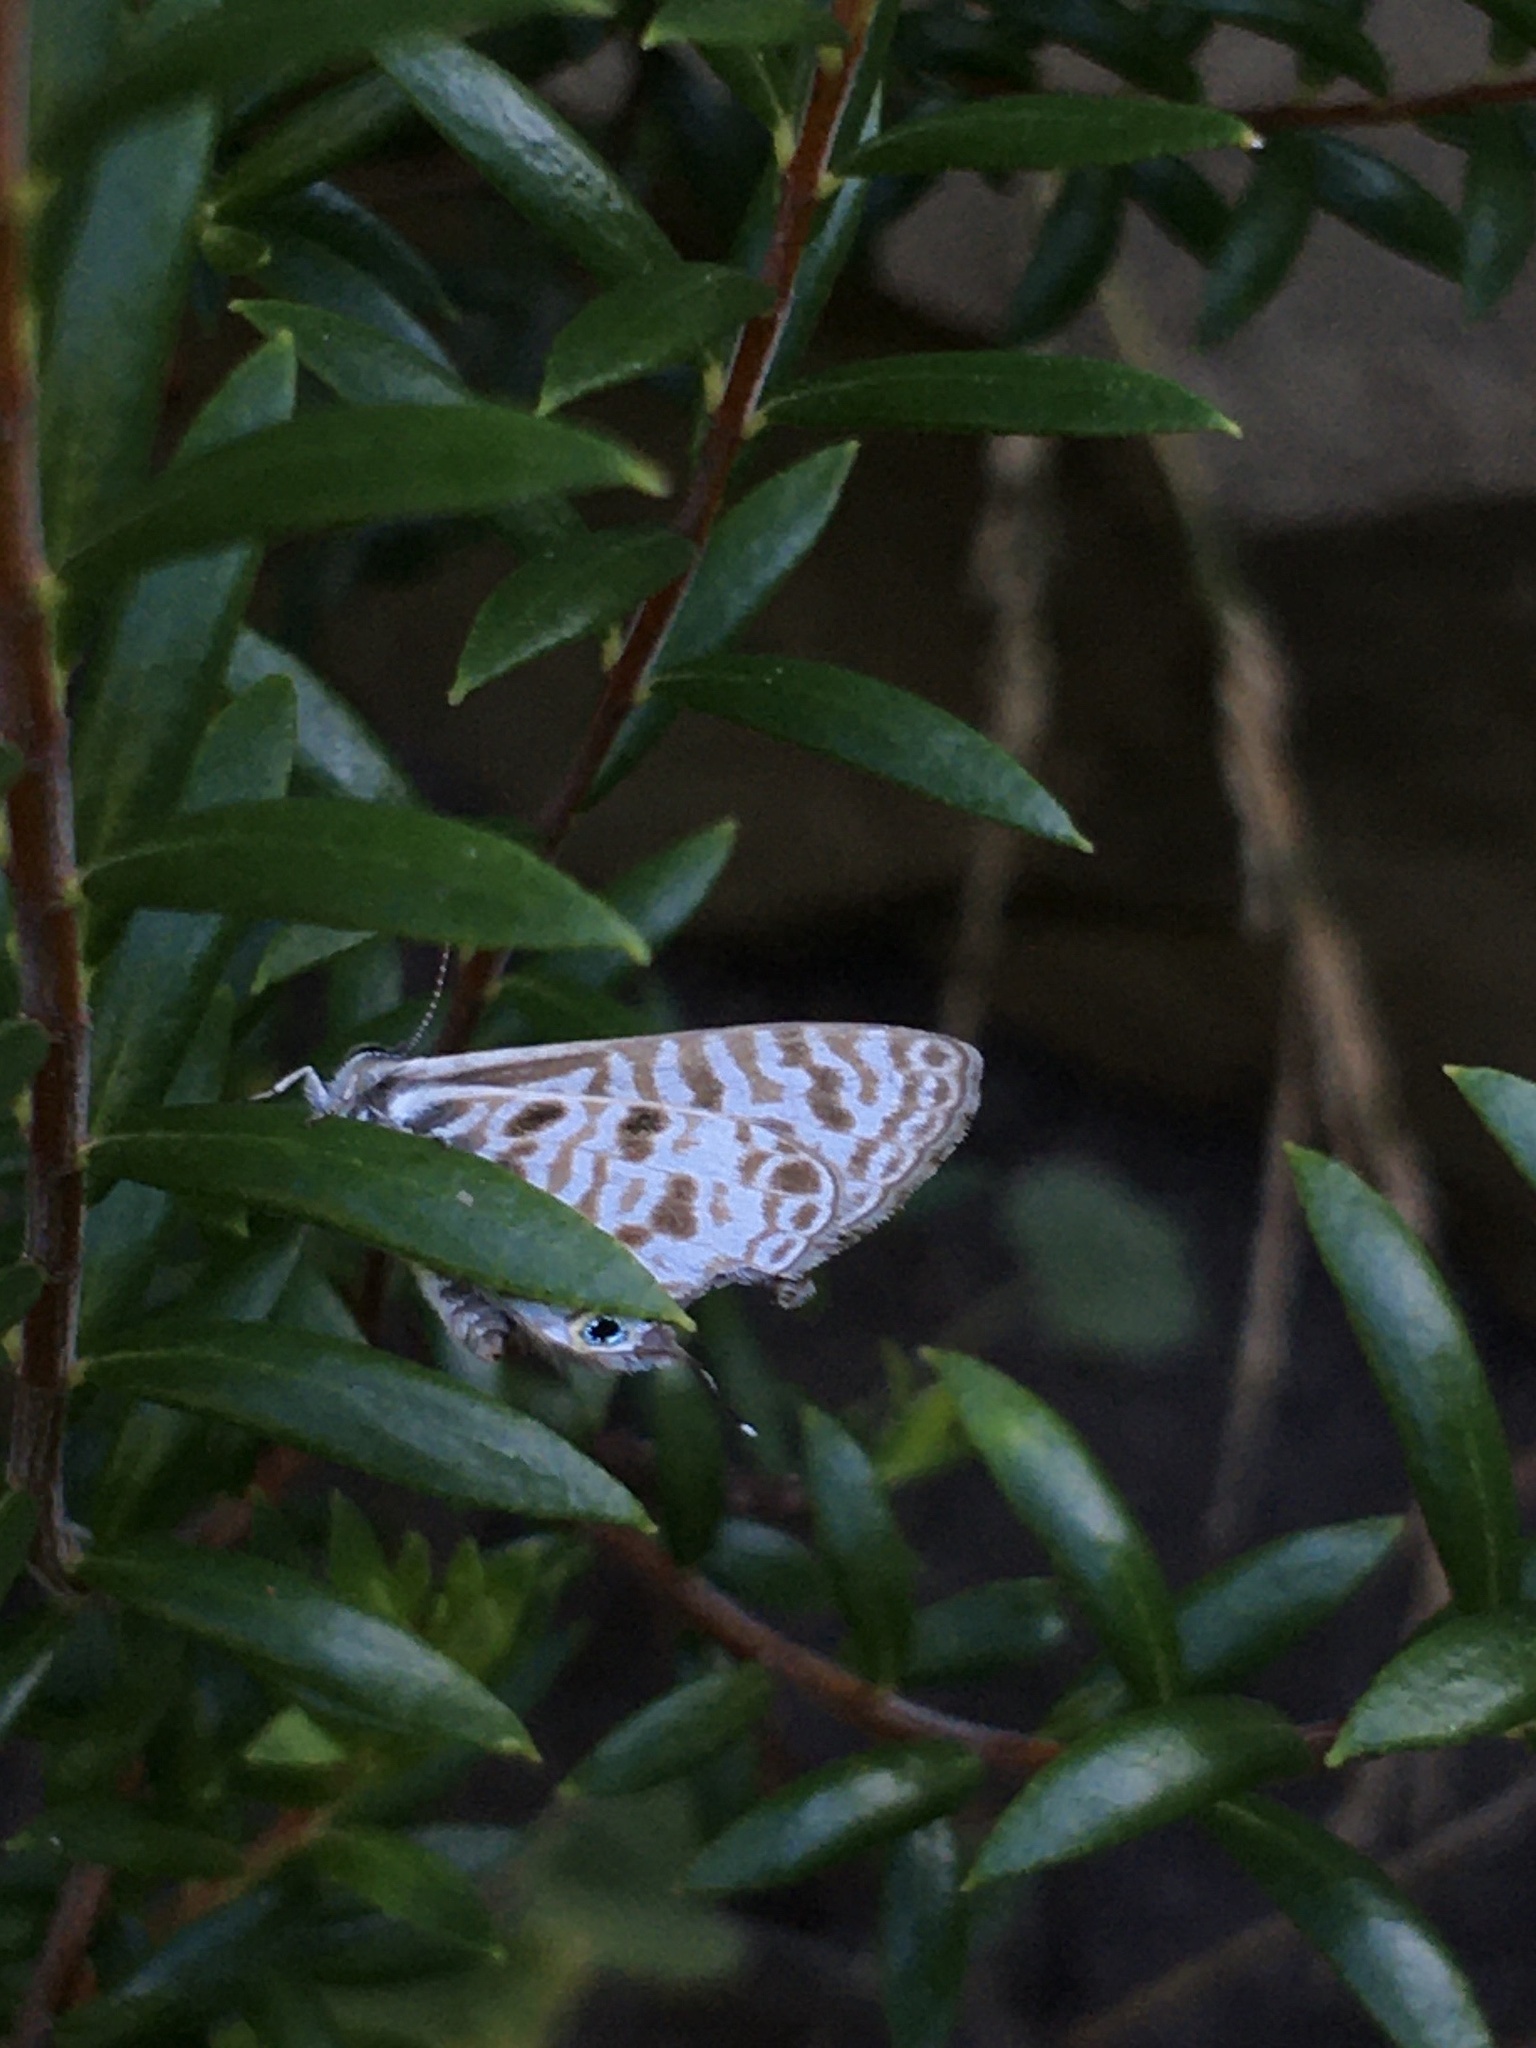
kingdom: Animalia
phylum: Arthropoda
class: Insecta
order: Lepidoptera
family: Lycaenidae
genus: Leptotes
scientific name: Leptotes
